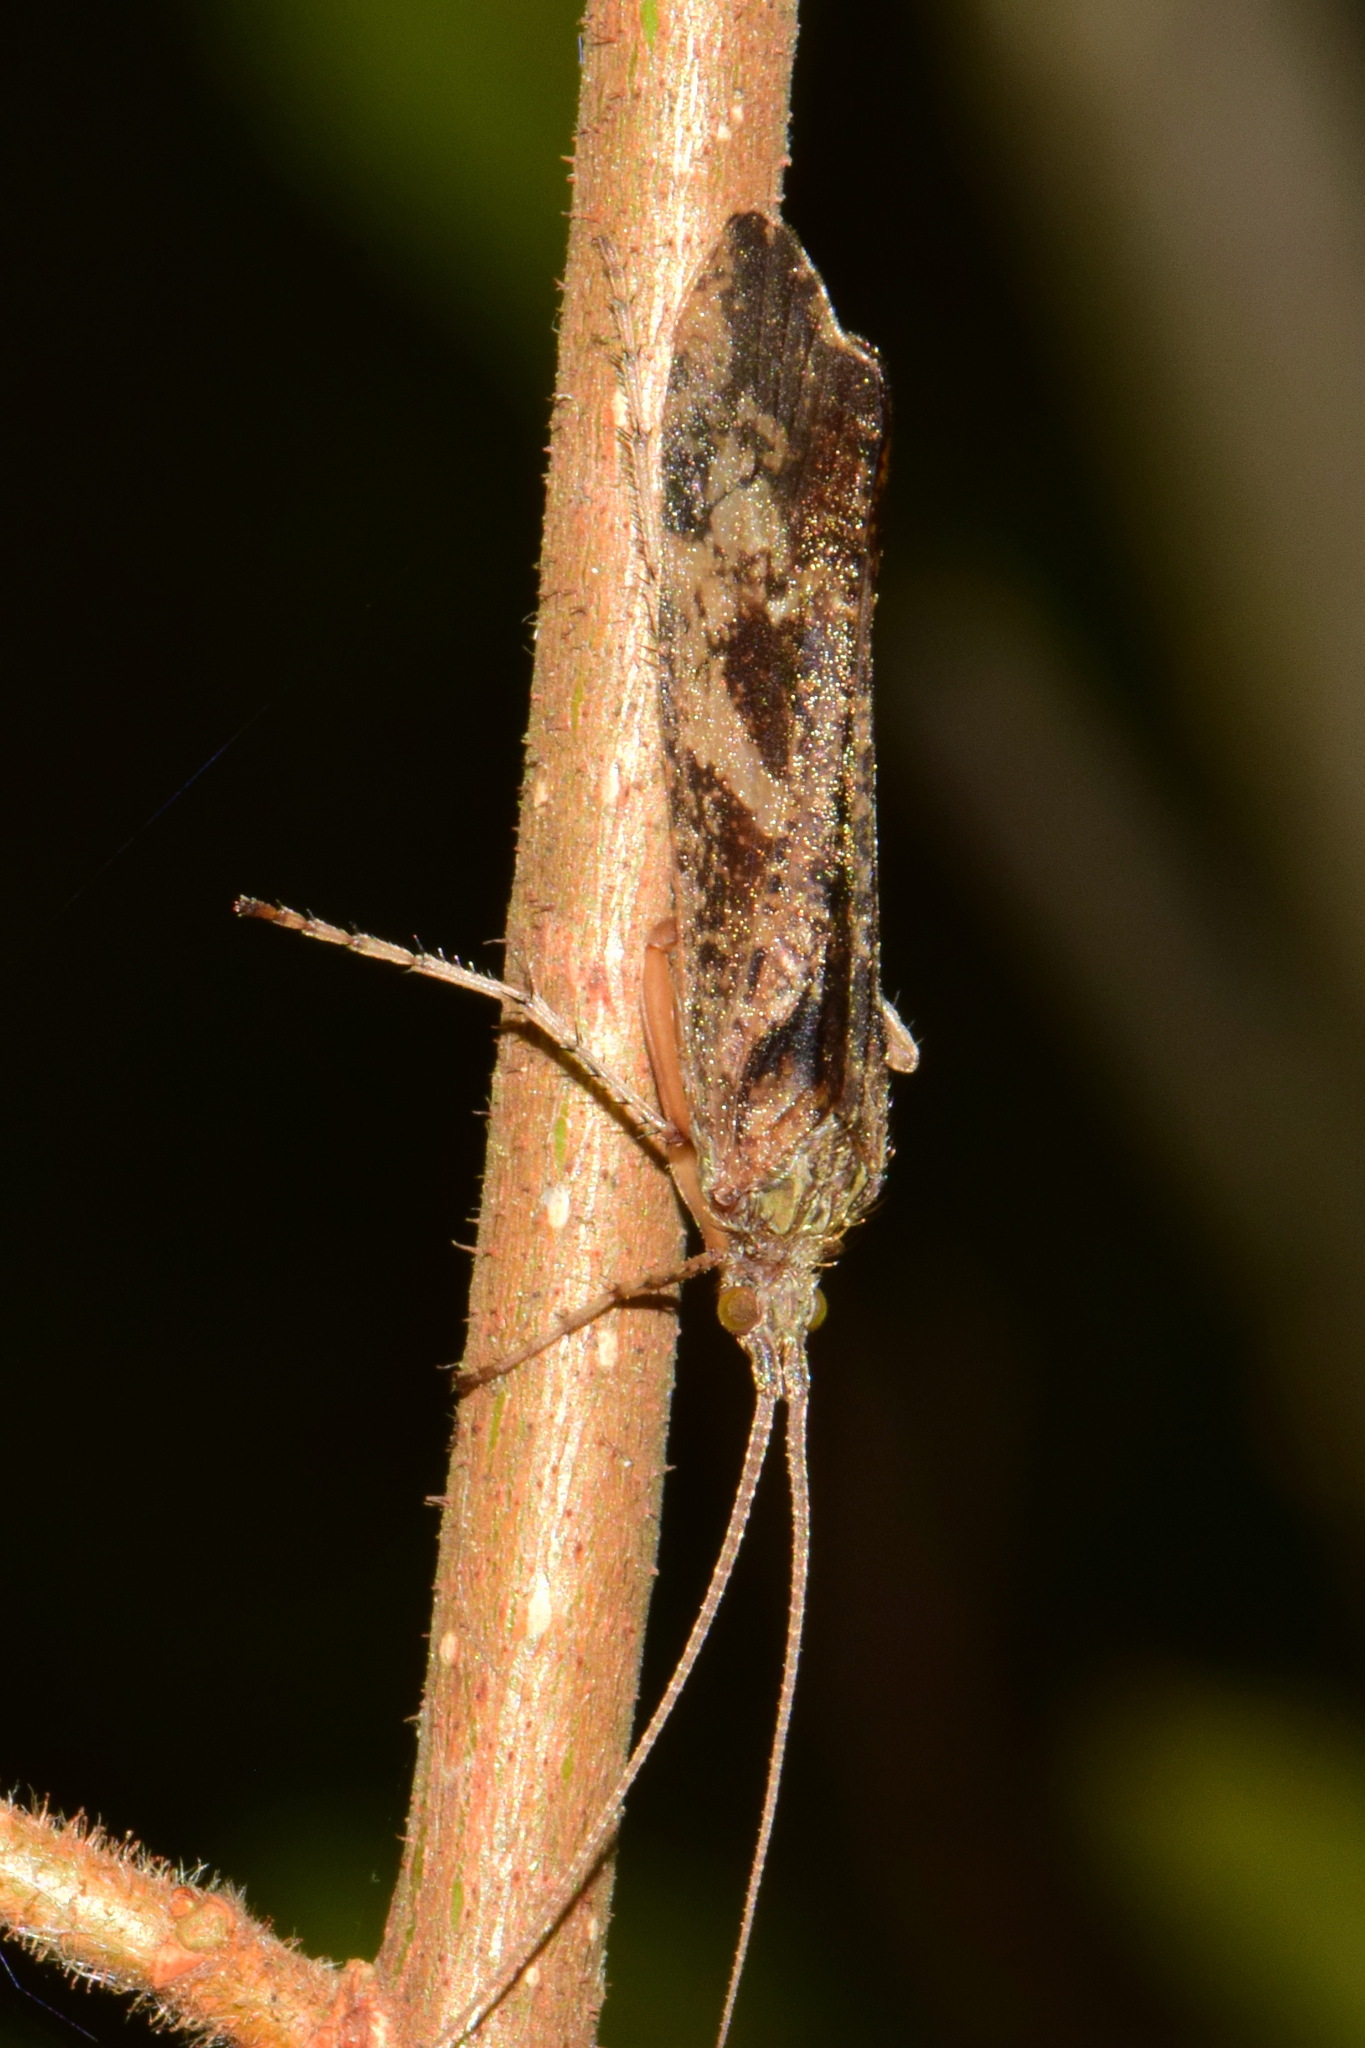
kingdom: Animalia
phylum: Arthropoda
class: Insecta
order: Trichoptera
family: Limnephilidae
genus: Glyphotaelius
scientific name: Glyphotaelius pellucidus
